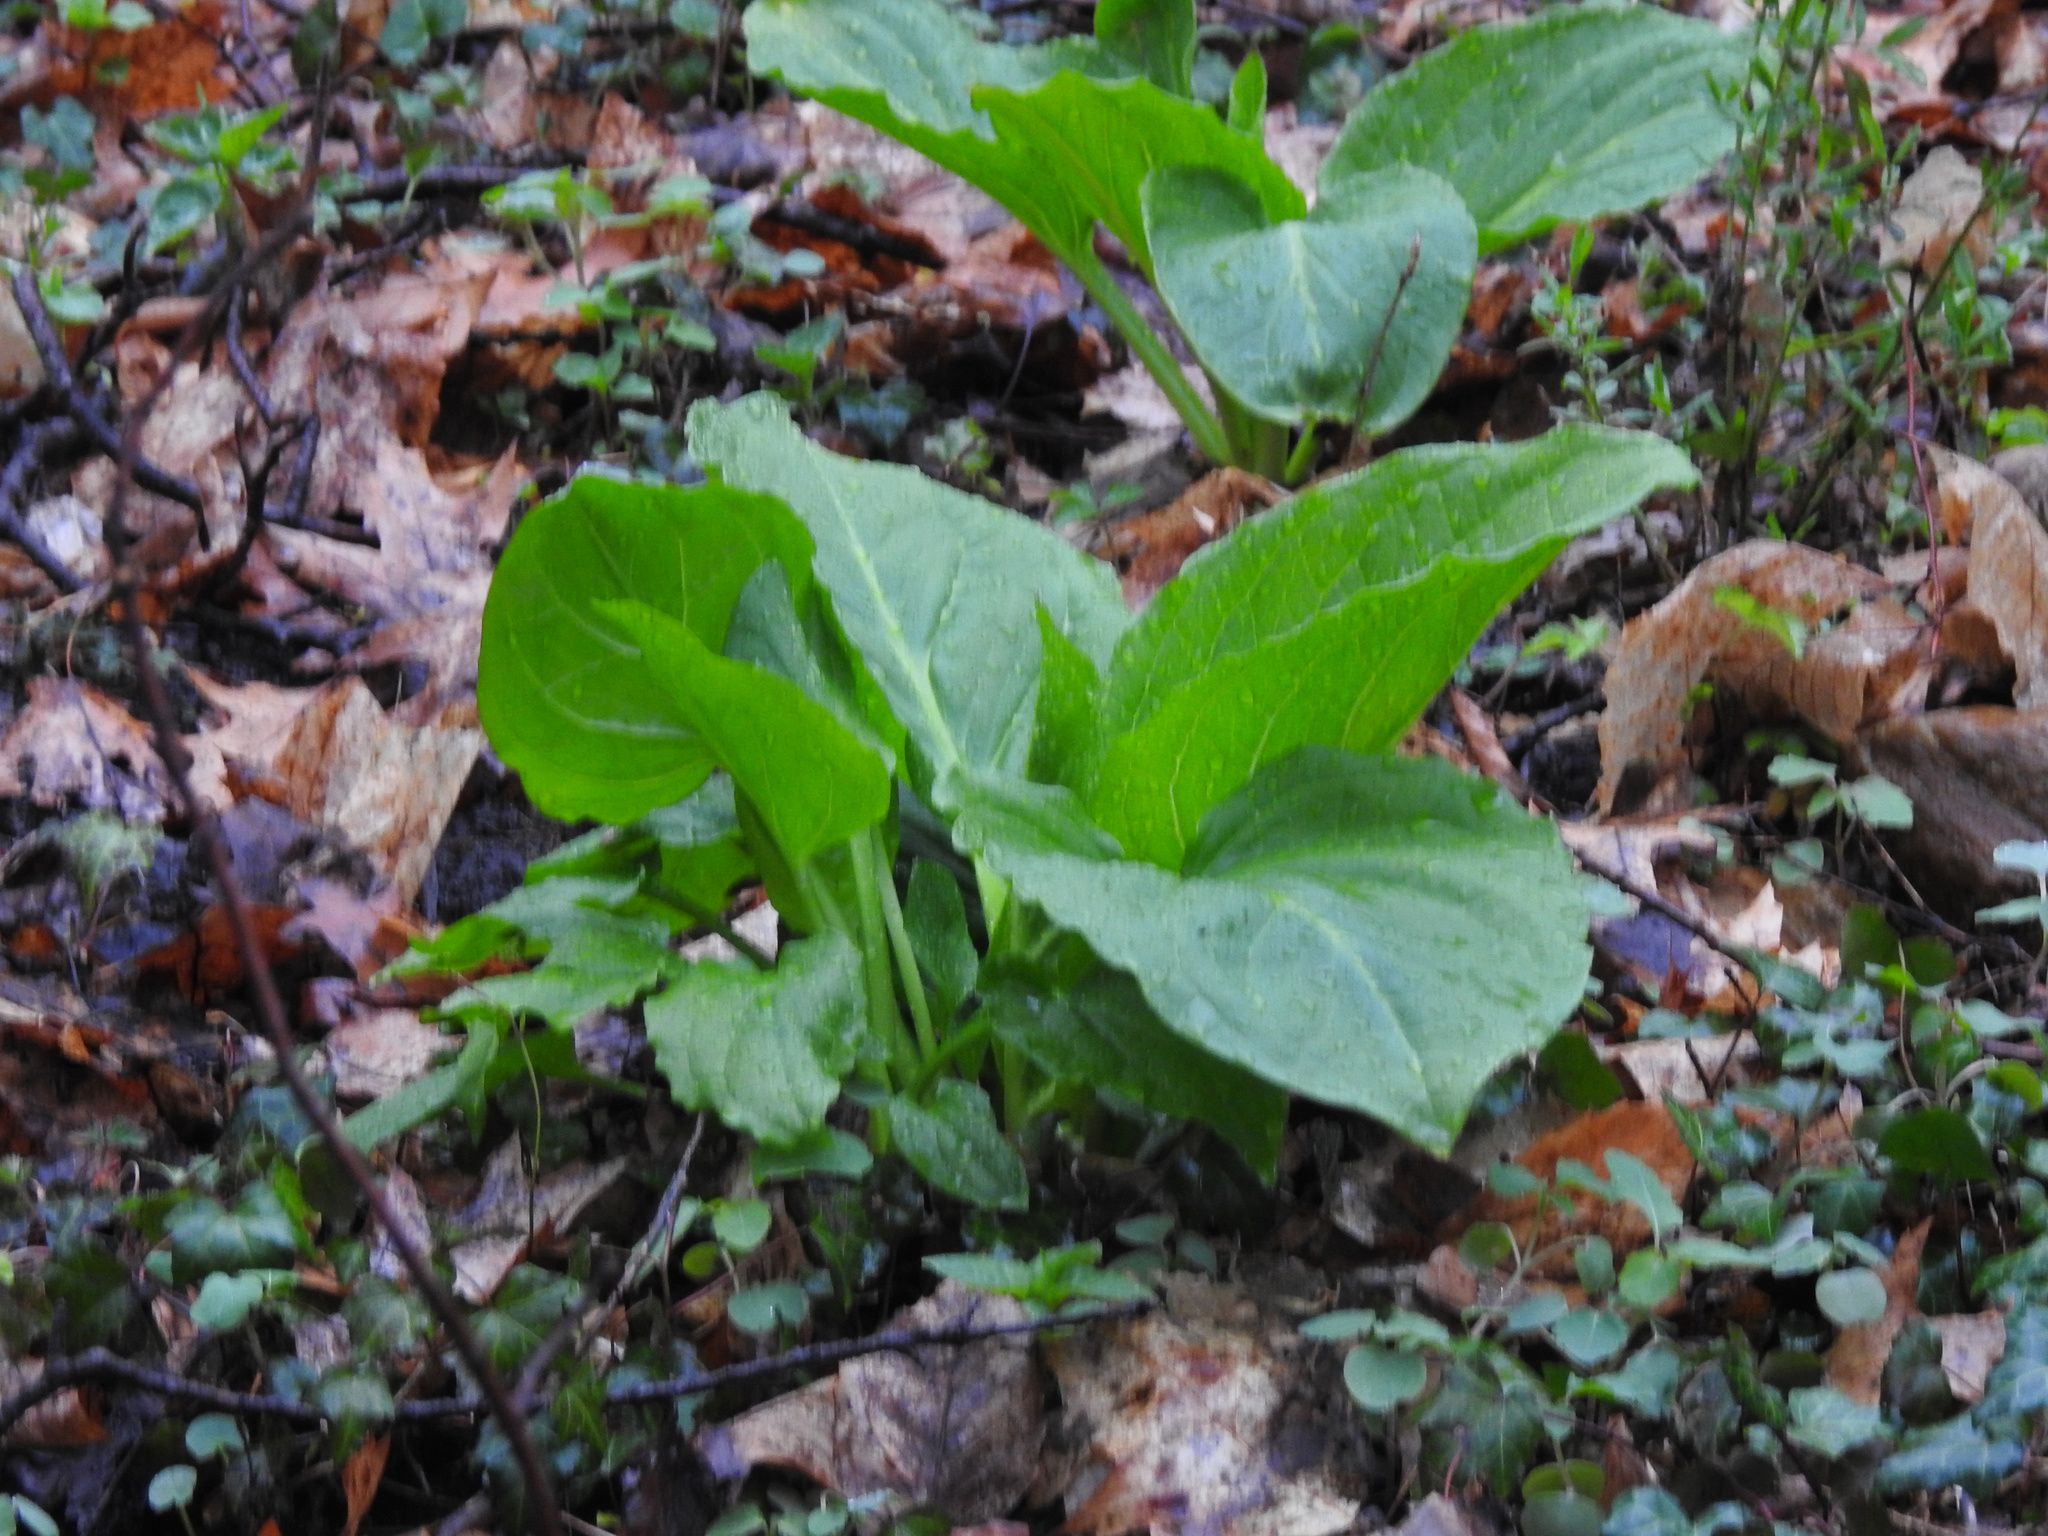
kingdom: Plantae
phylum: Tracheophyta
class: Liliopsida
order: Alismatales
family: Araceae
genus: Symplocarpus
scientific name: Symplocarpus foetidus
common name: Eastern skunk cabbage
